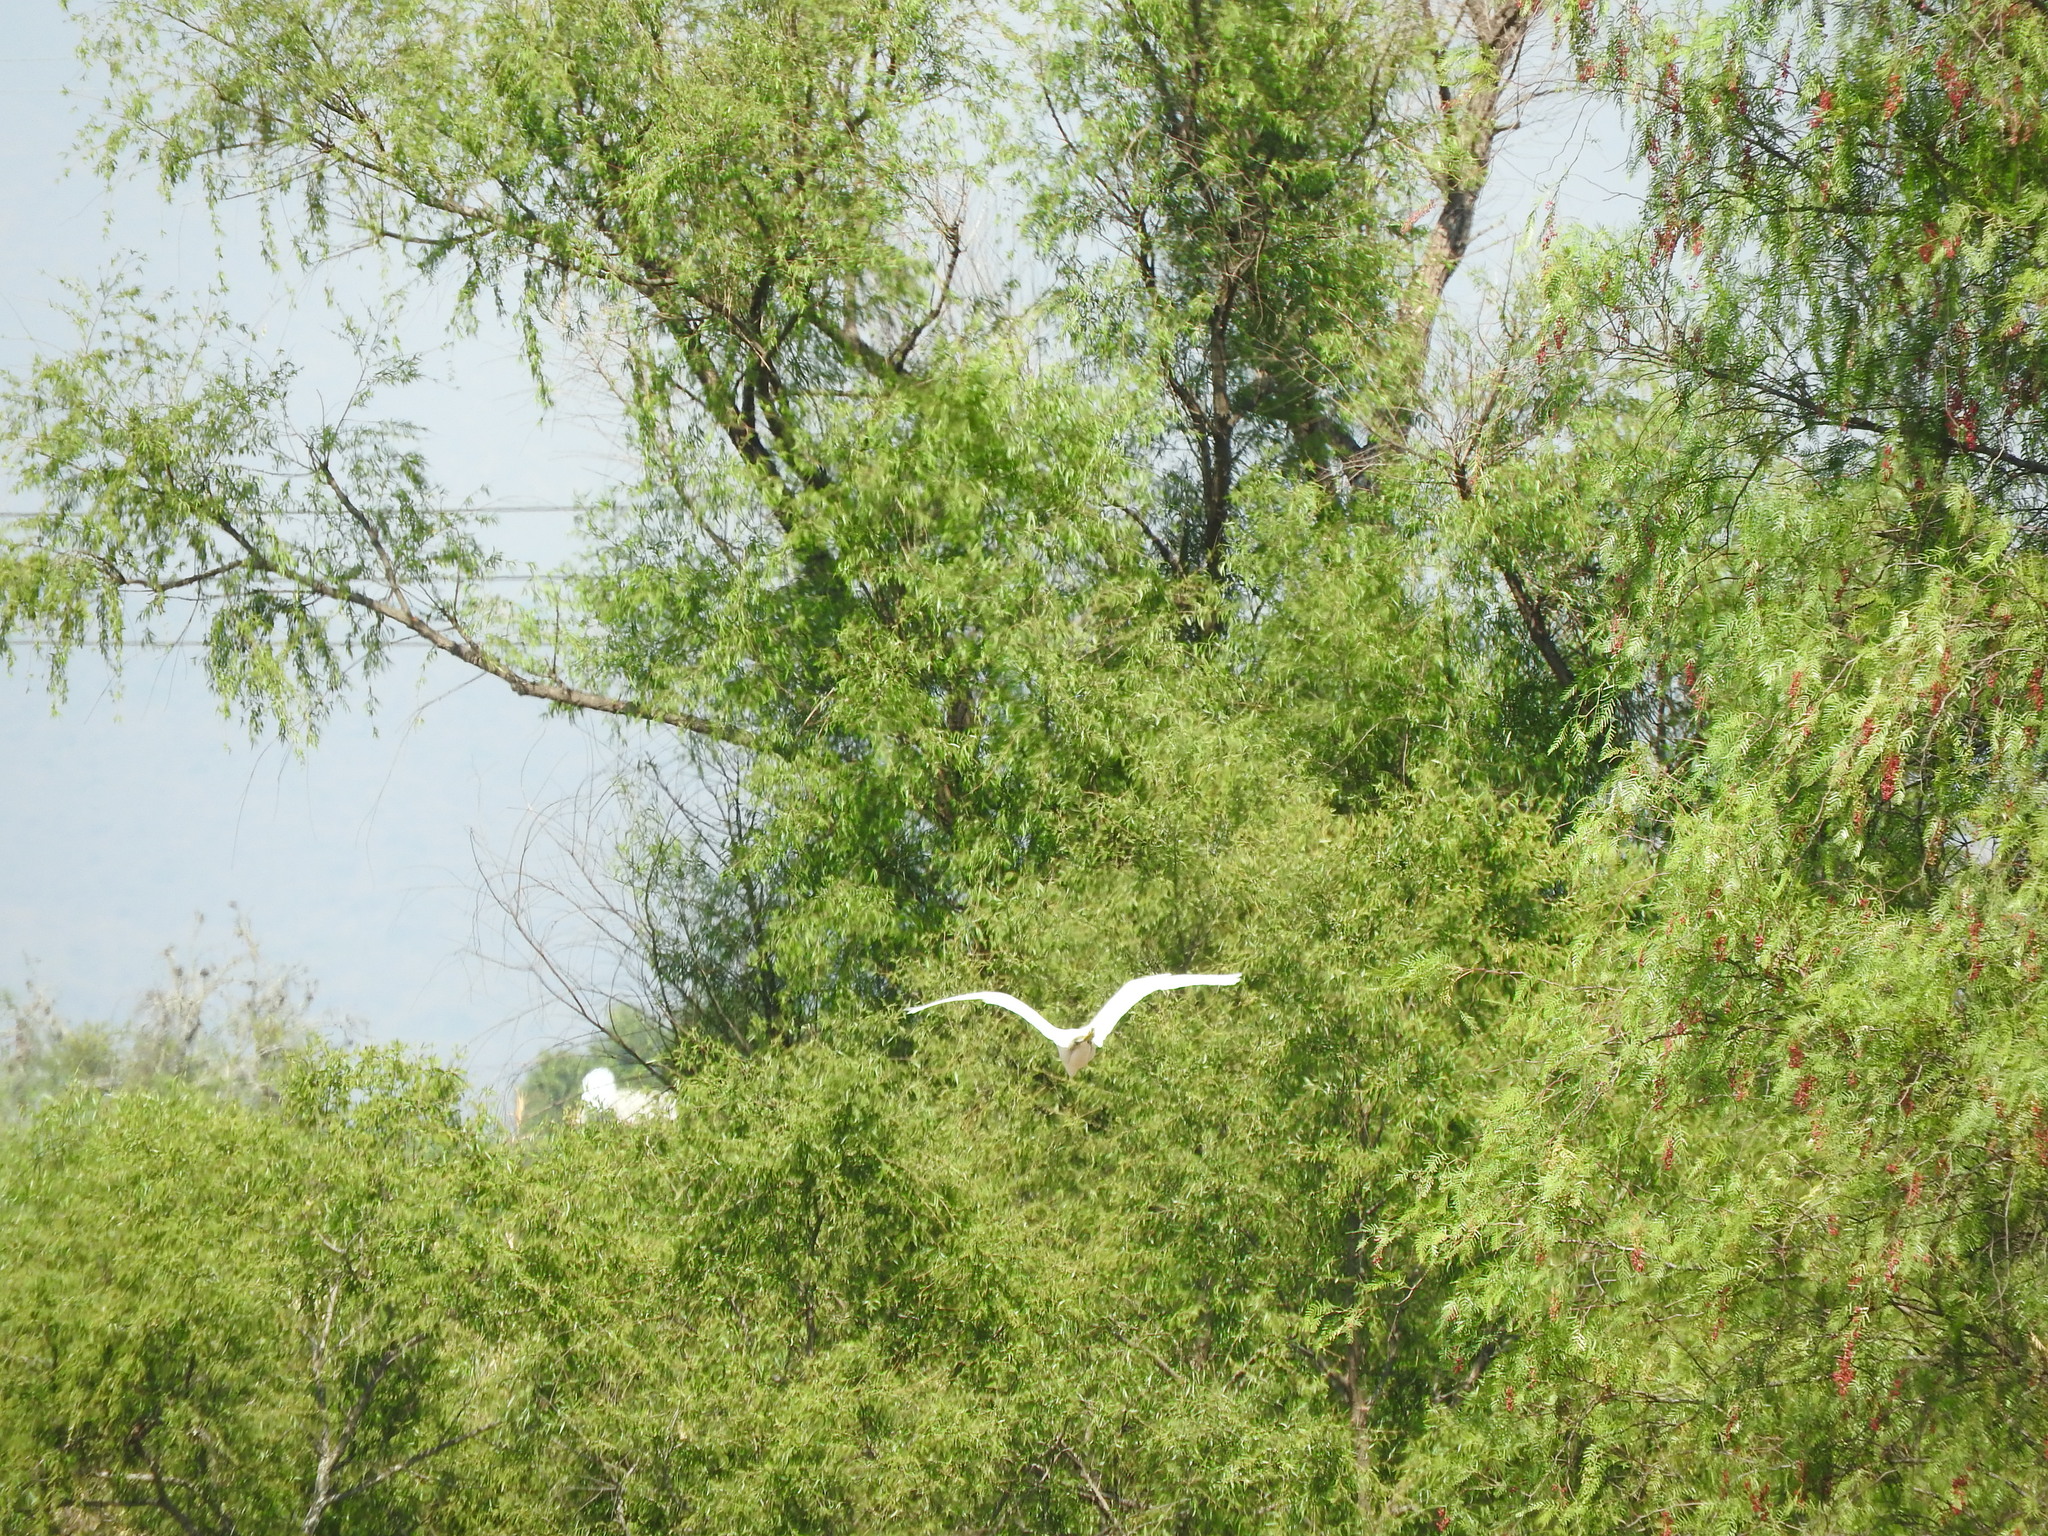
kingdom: Animalia
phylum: Chordata
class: Aves
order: Pelecaniformes
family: Ardeidae
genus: Egretta
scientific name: Egretta thula
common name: Snowy egret
